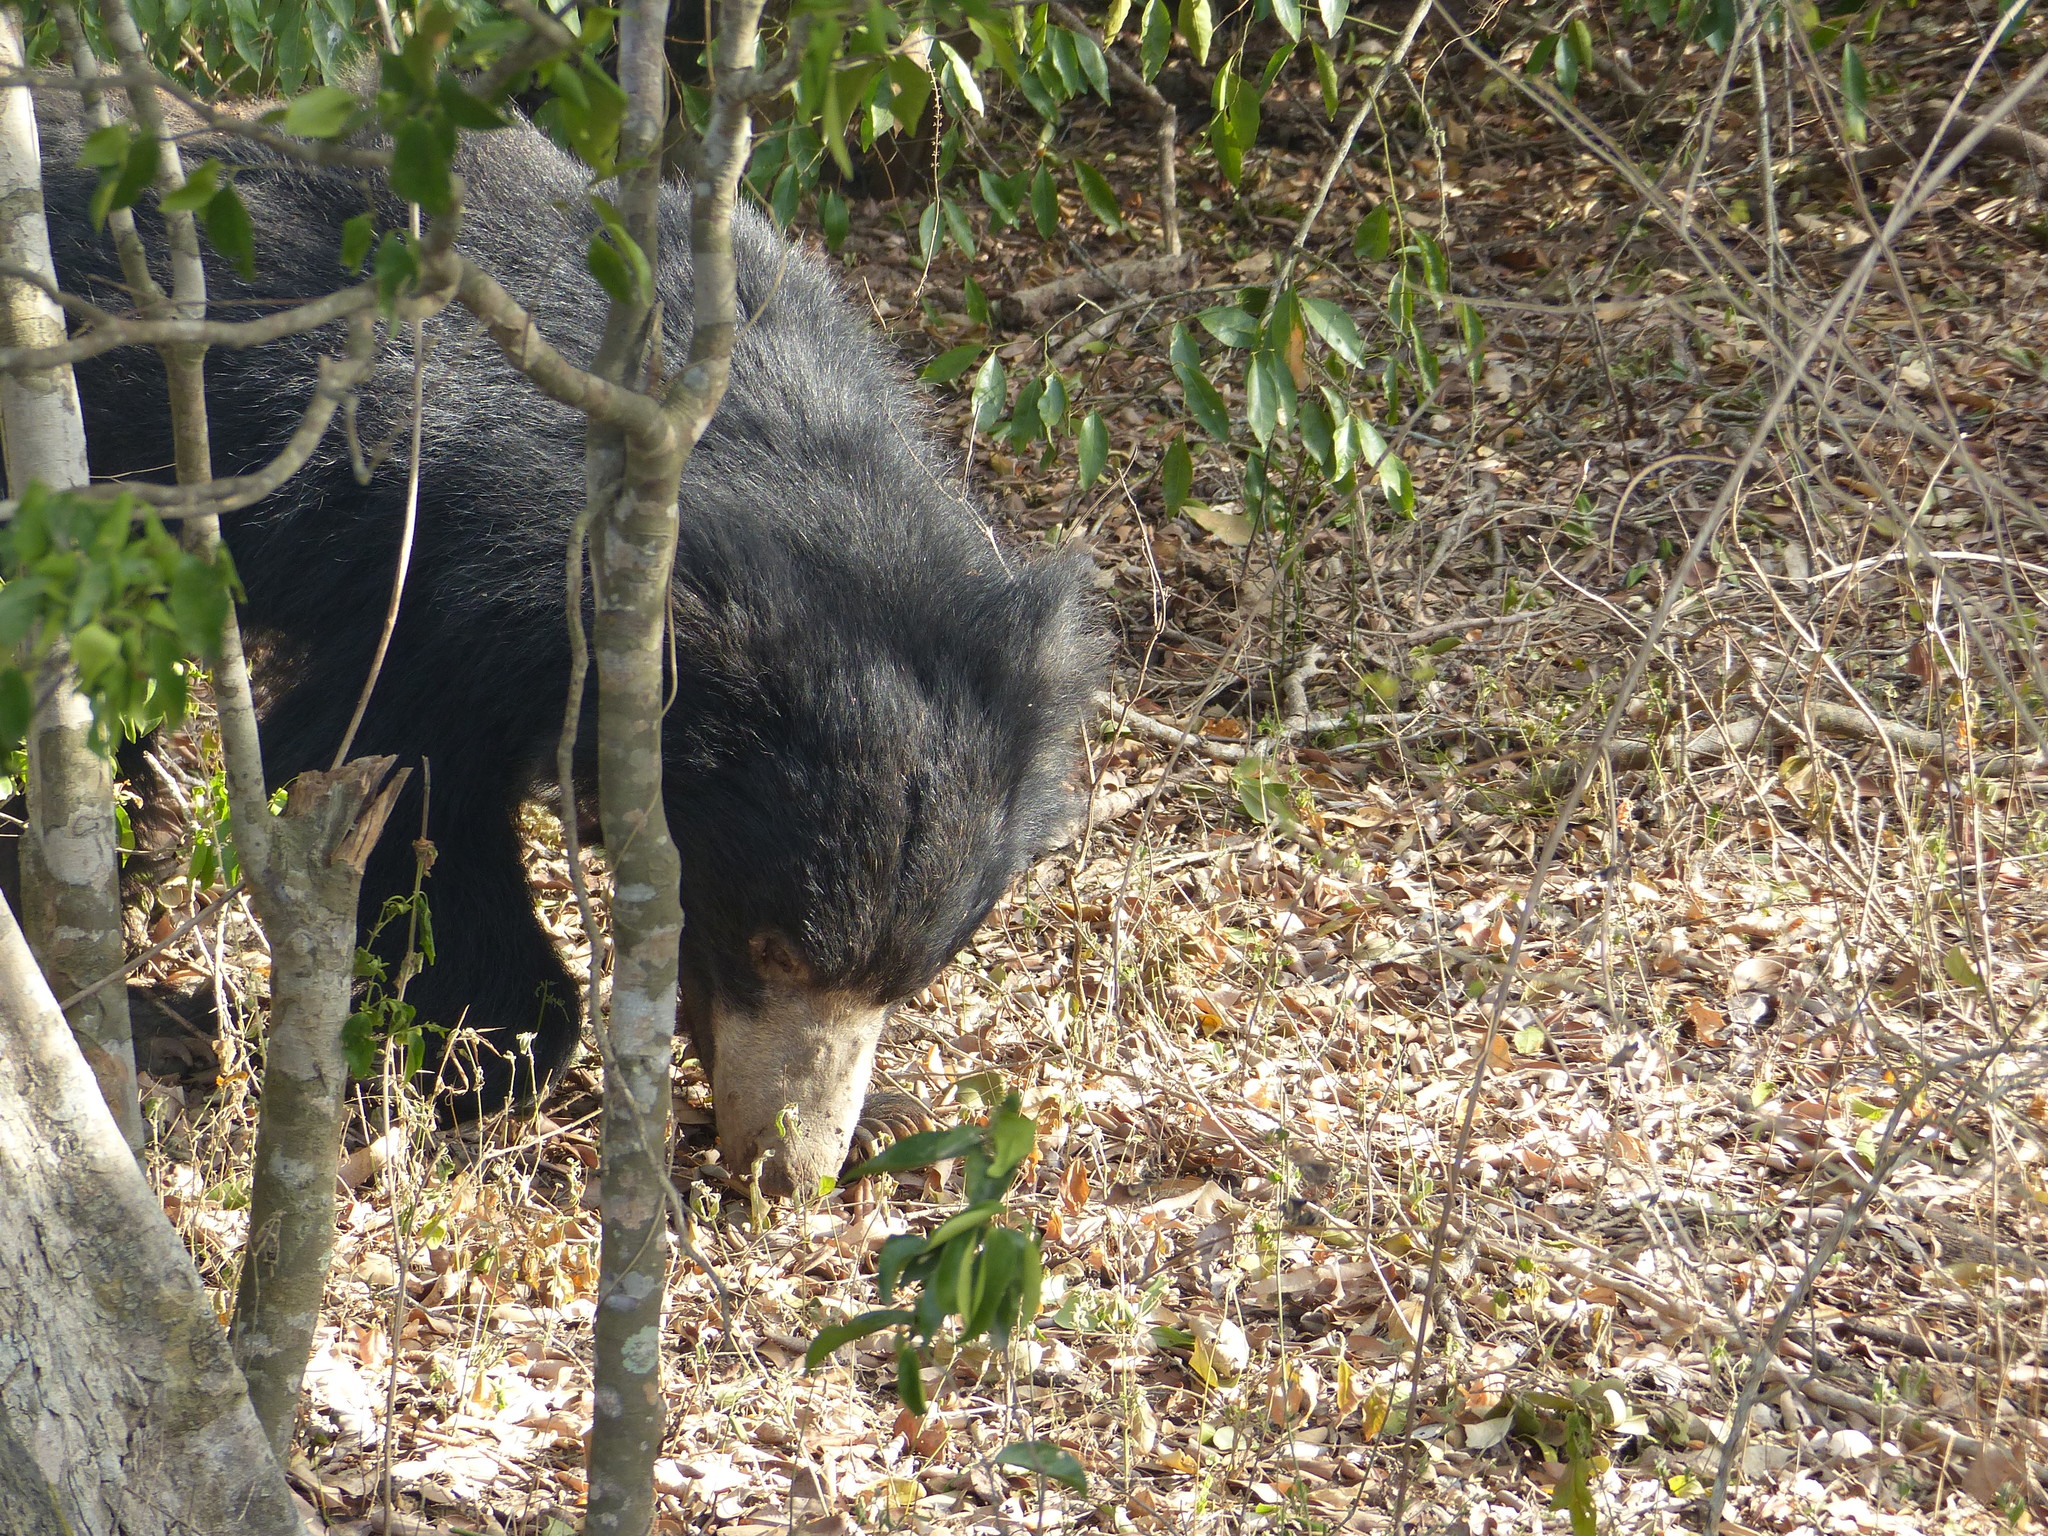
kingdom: Animalia
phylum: Chordata
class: Mammalia
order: Carnivora
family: Ursidae
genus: Melursus
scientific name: Melursus ursinus
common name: Sloth bear
